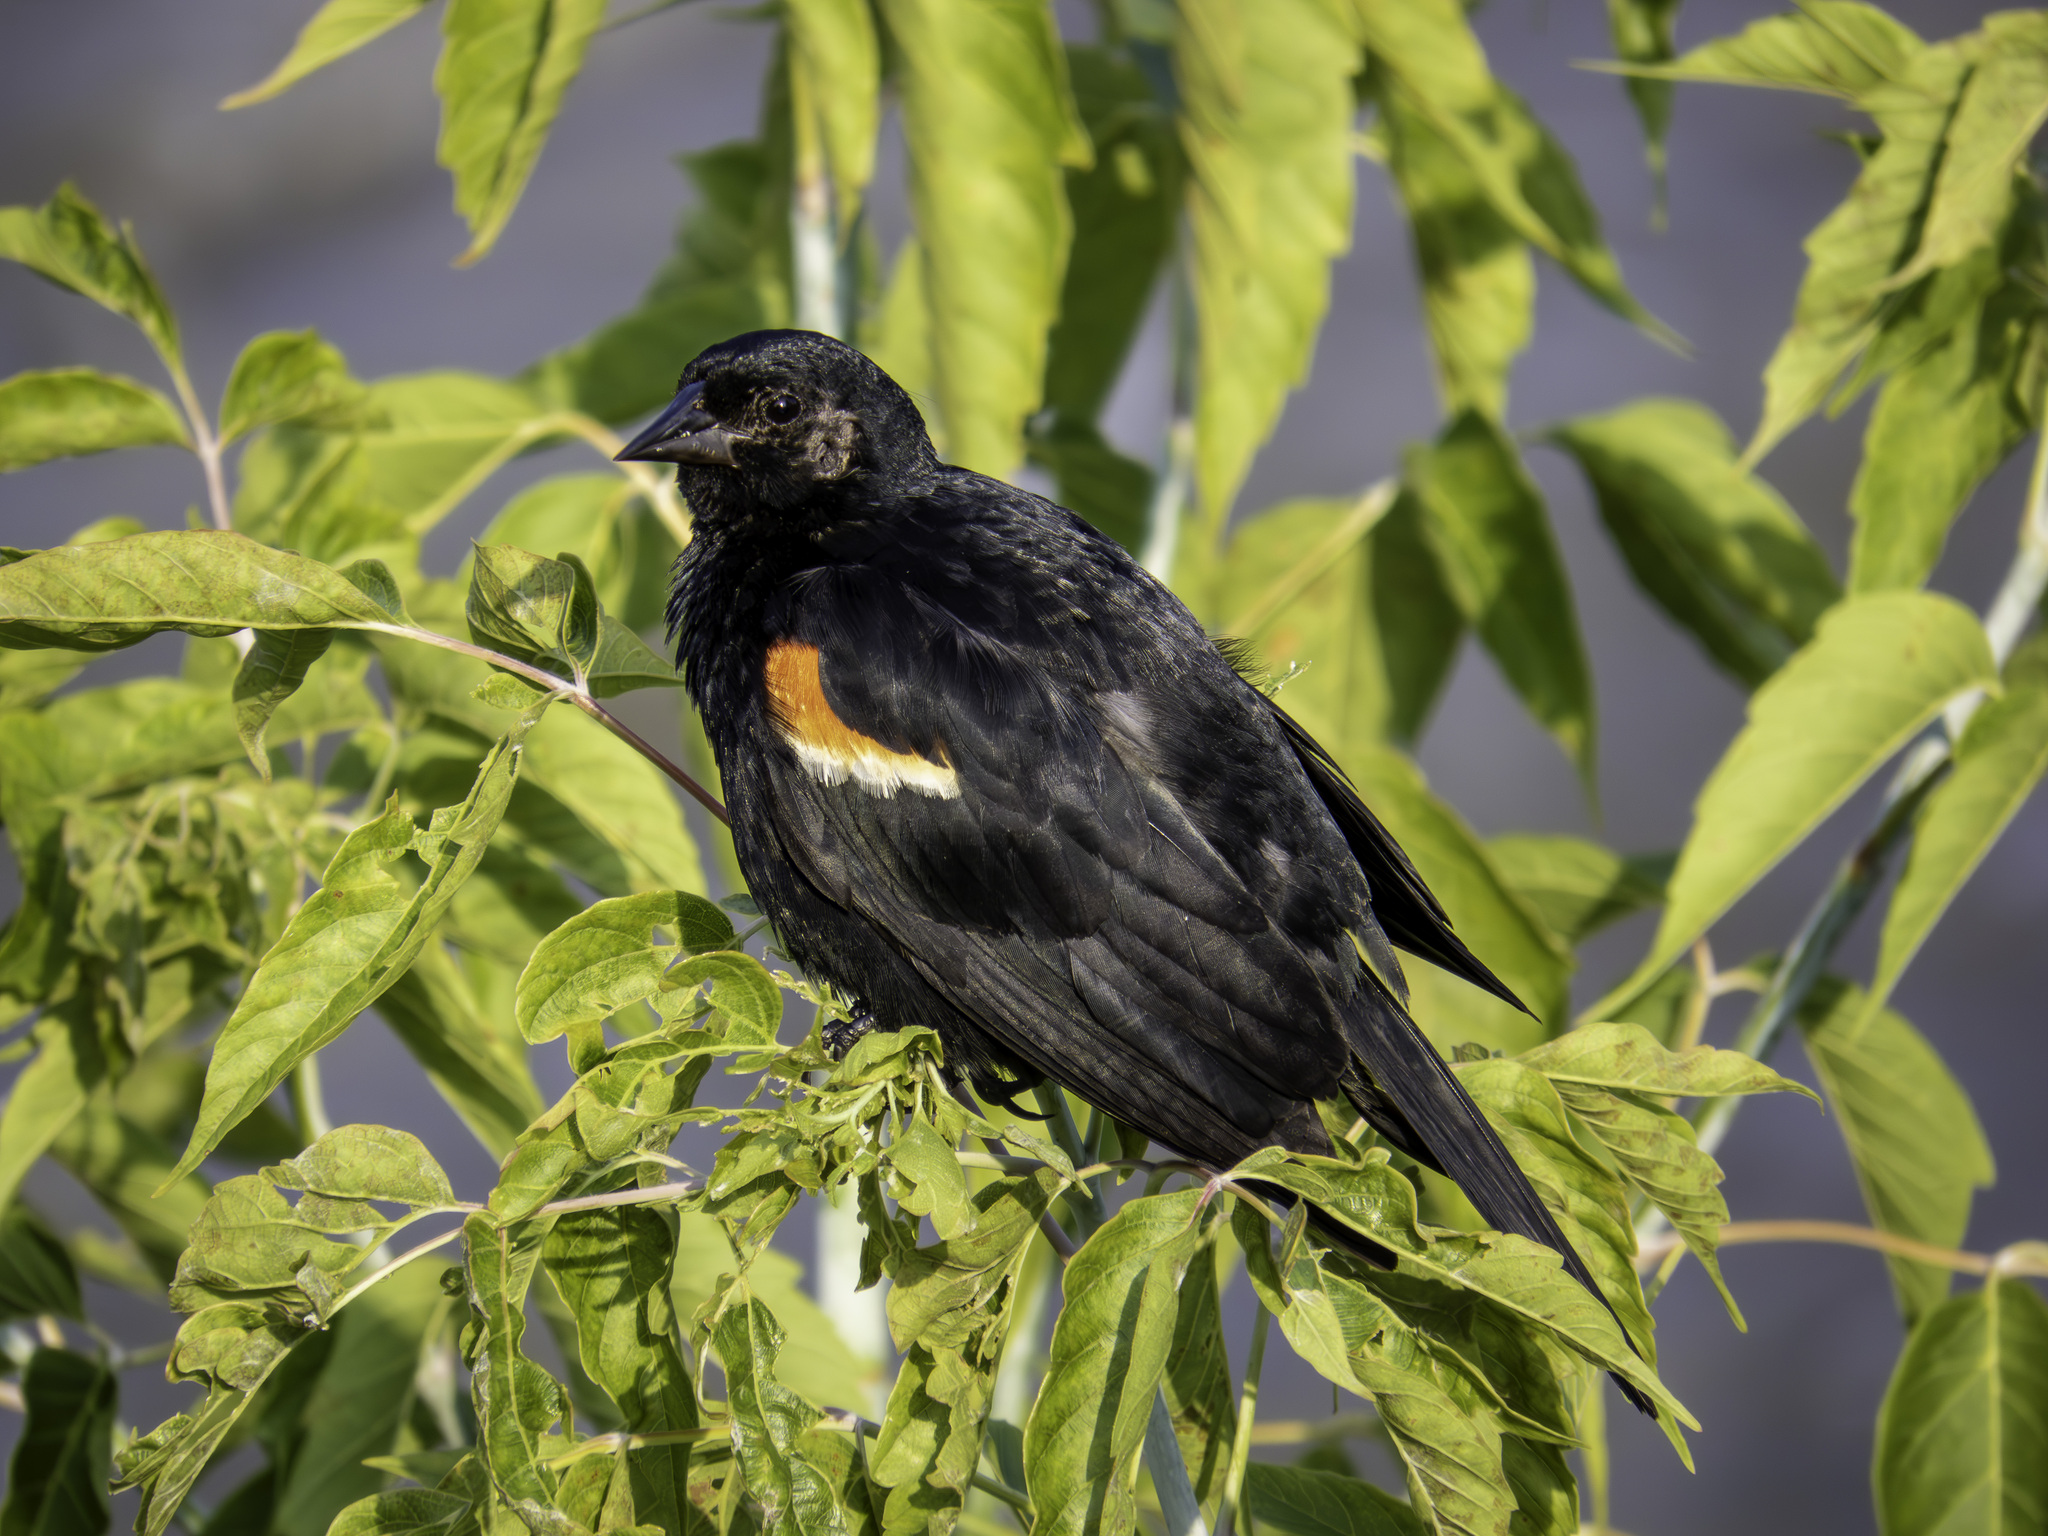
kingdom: Animalia
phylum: Chordata
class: Aves
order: Passeriformes
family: Icteridae
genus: Agelaius
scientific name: Agelaius phoeniceus
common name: Red-winged blackbird
